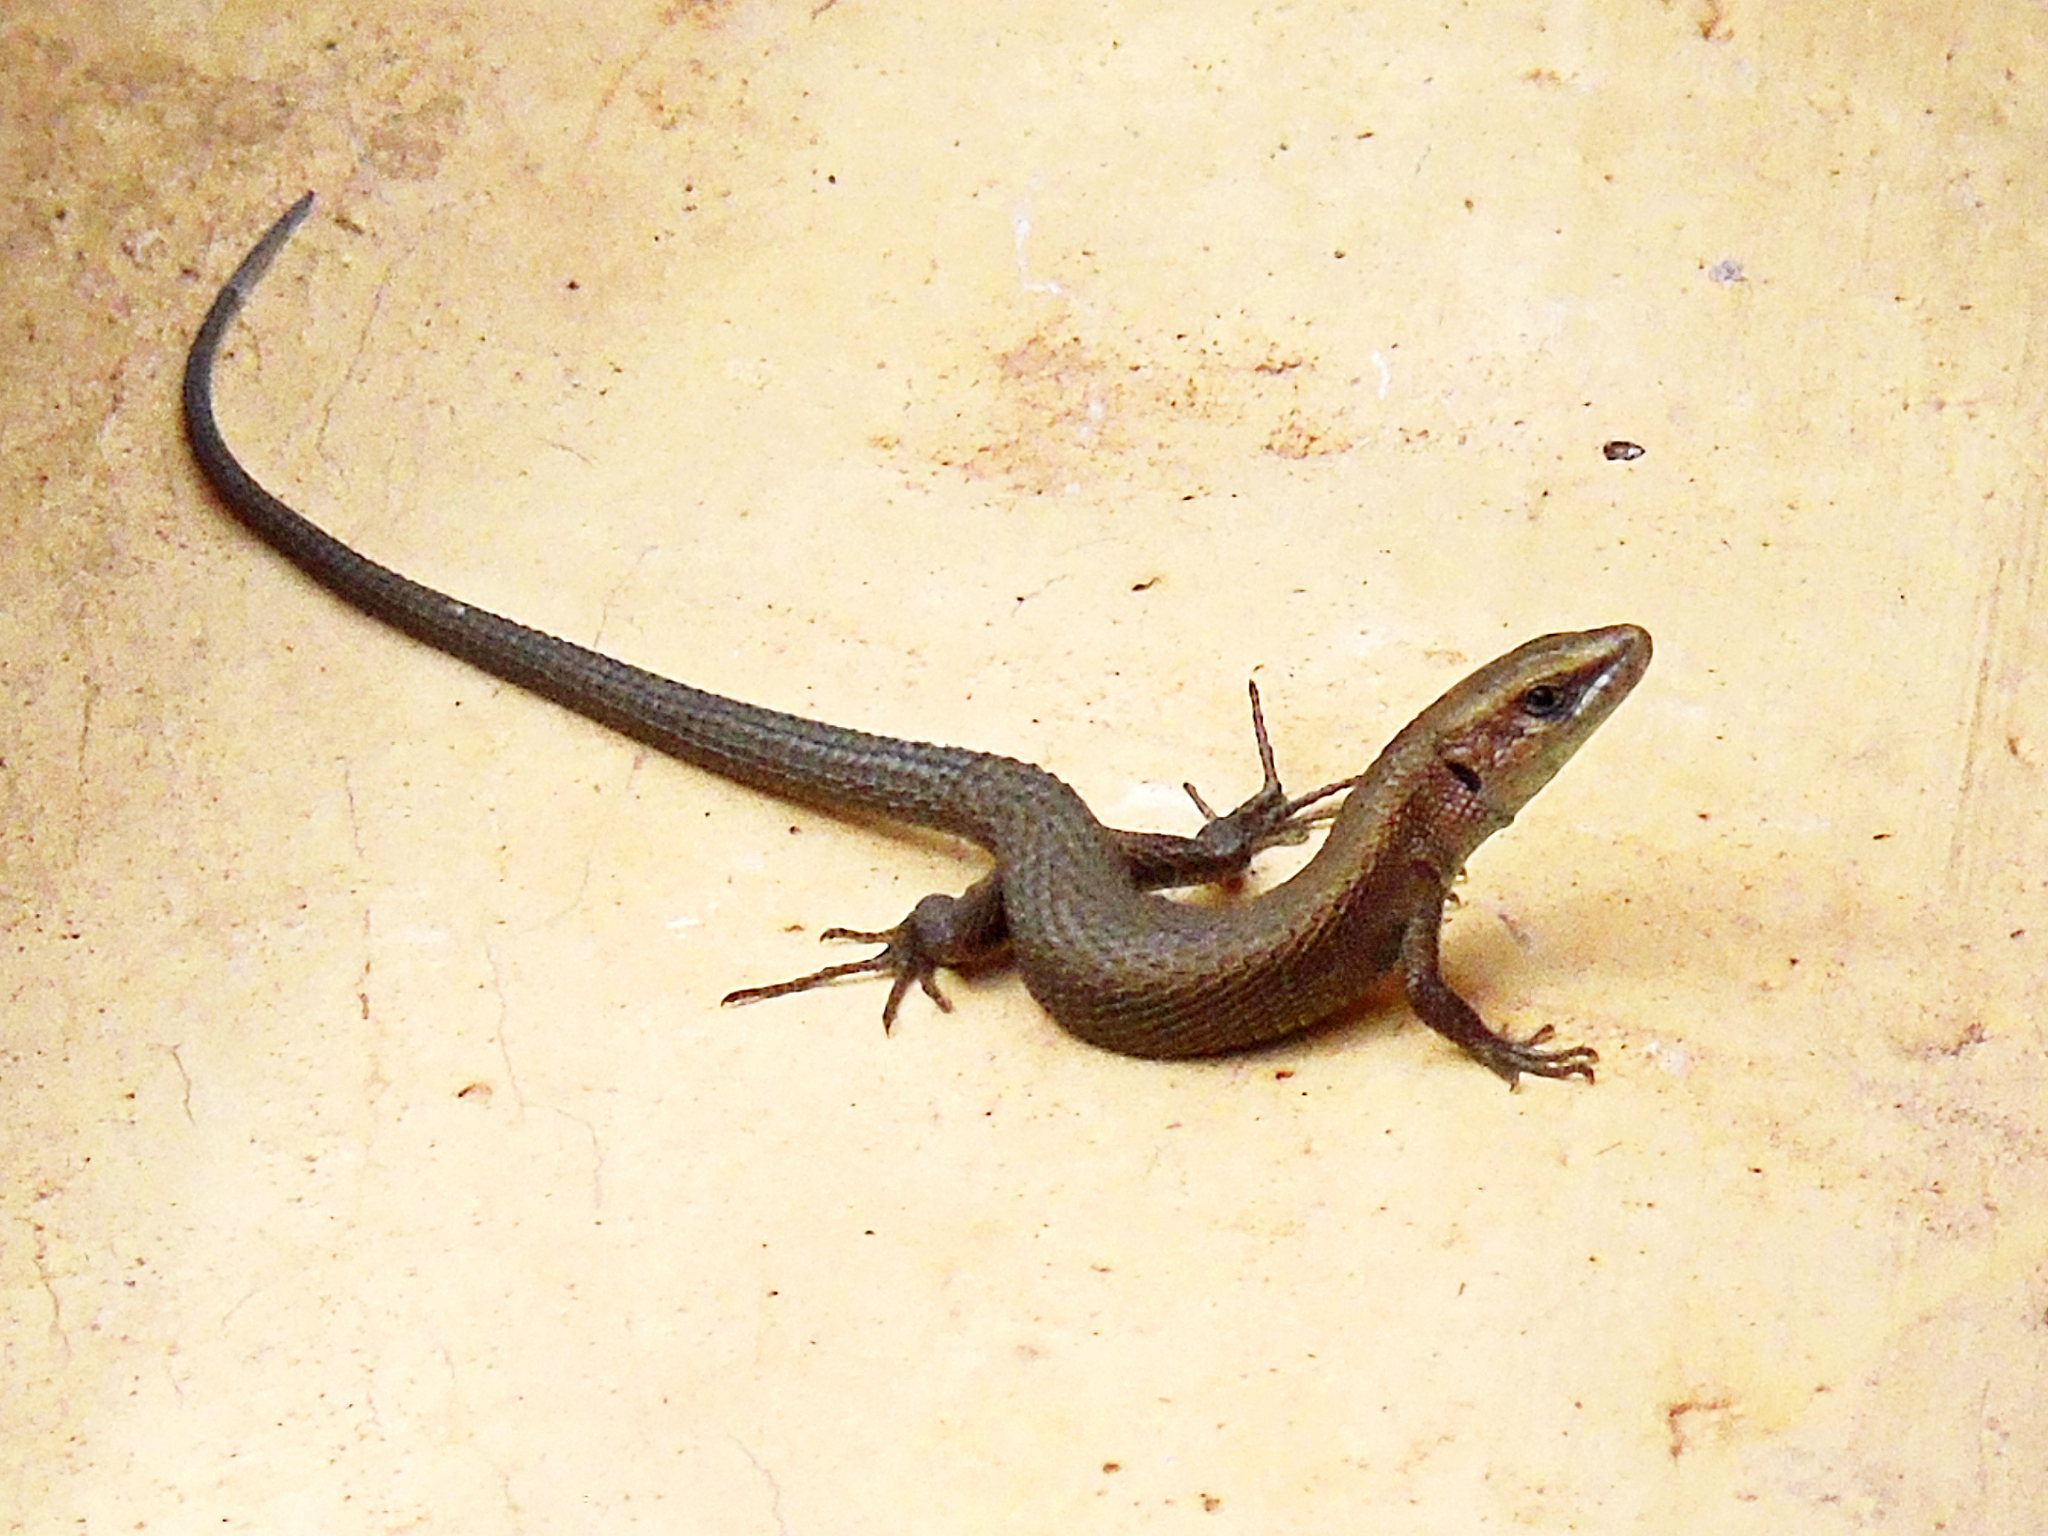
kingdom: Animalia
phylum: Chordata
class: Squamata
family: Lacertidae
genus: Algyroides
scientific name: Algyroides moreoticus
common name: Greek algyroides
